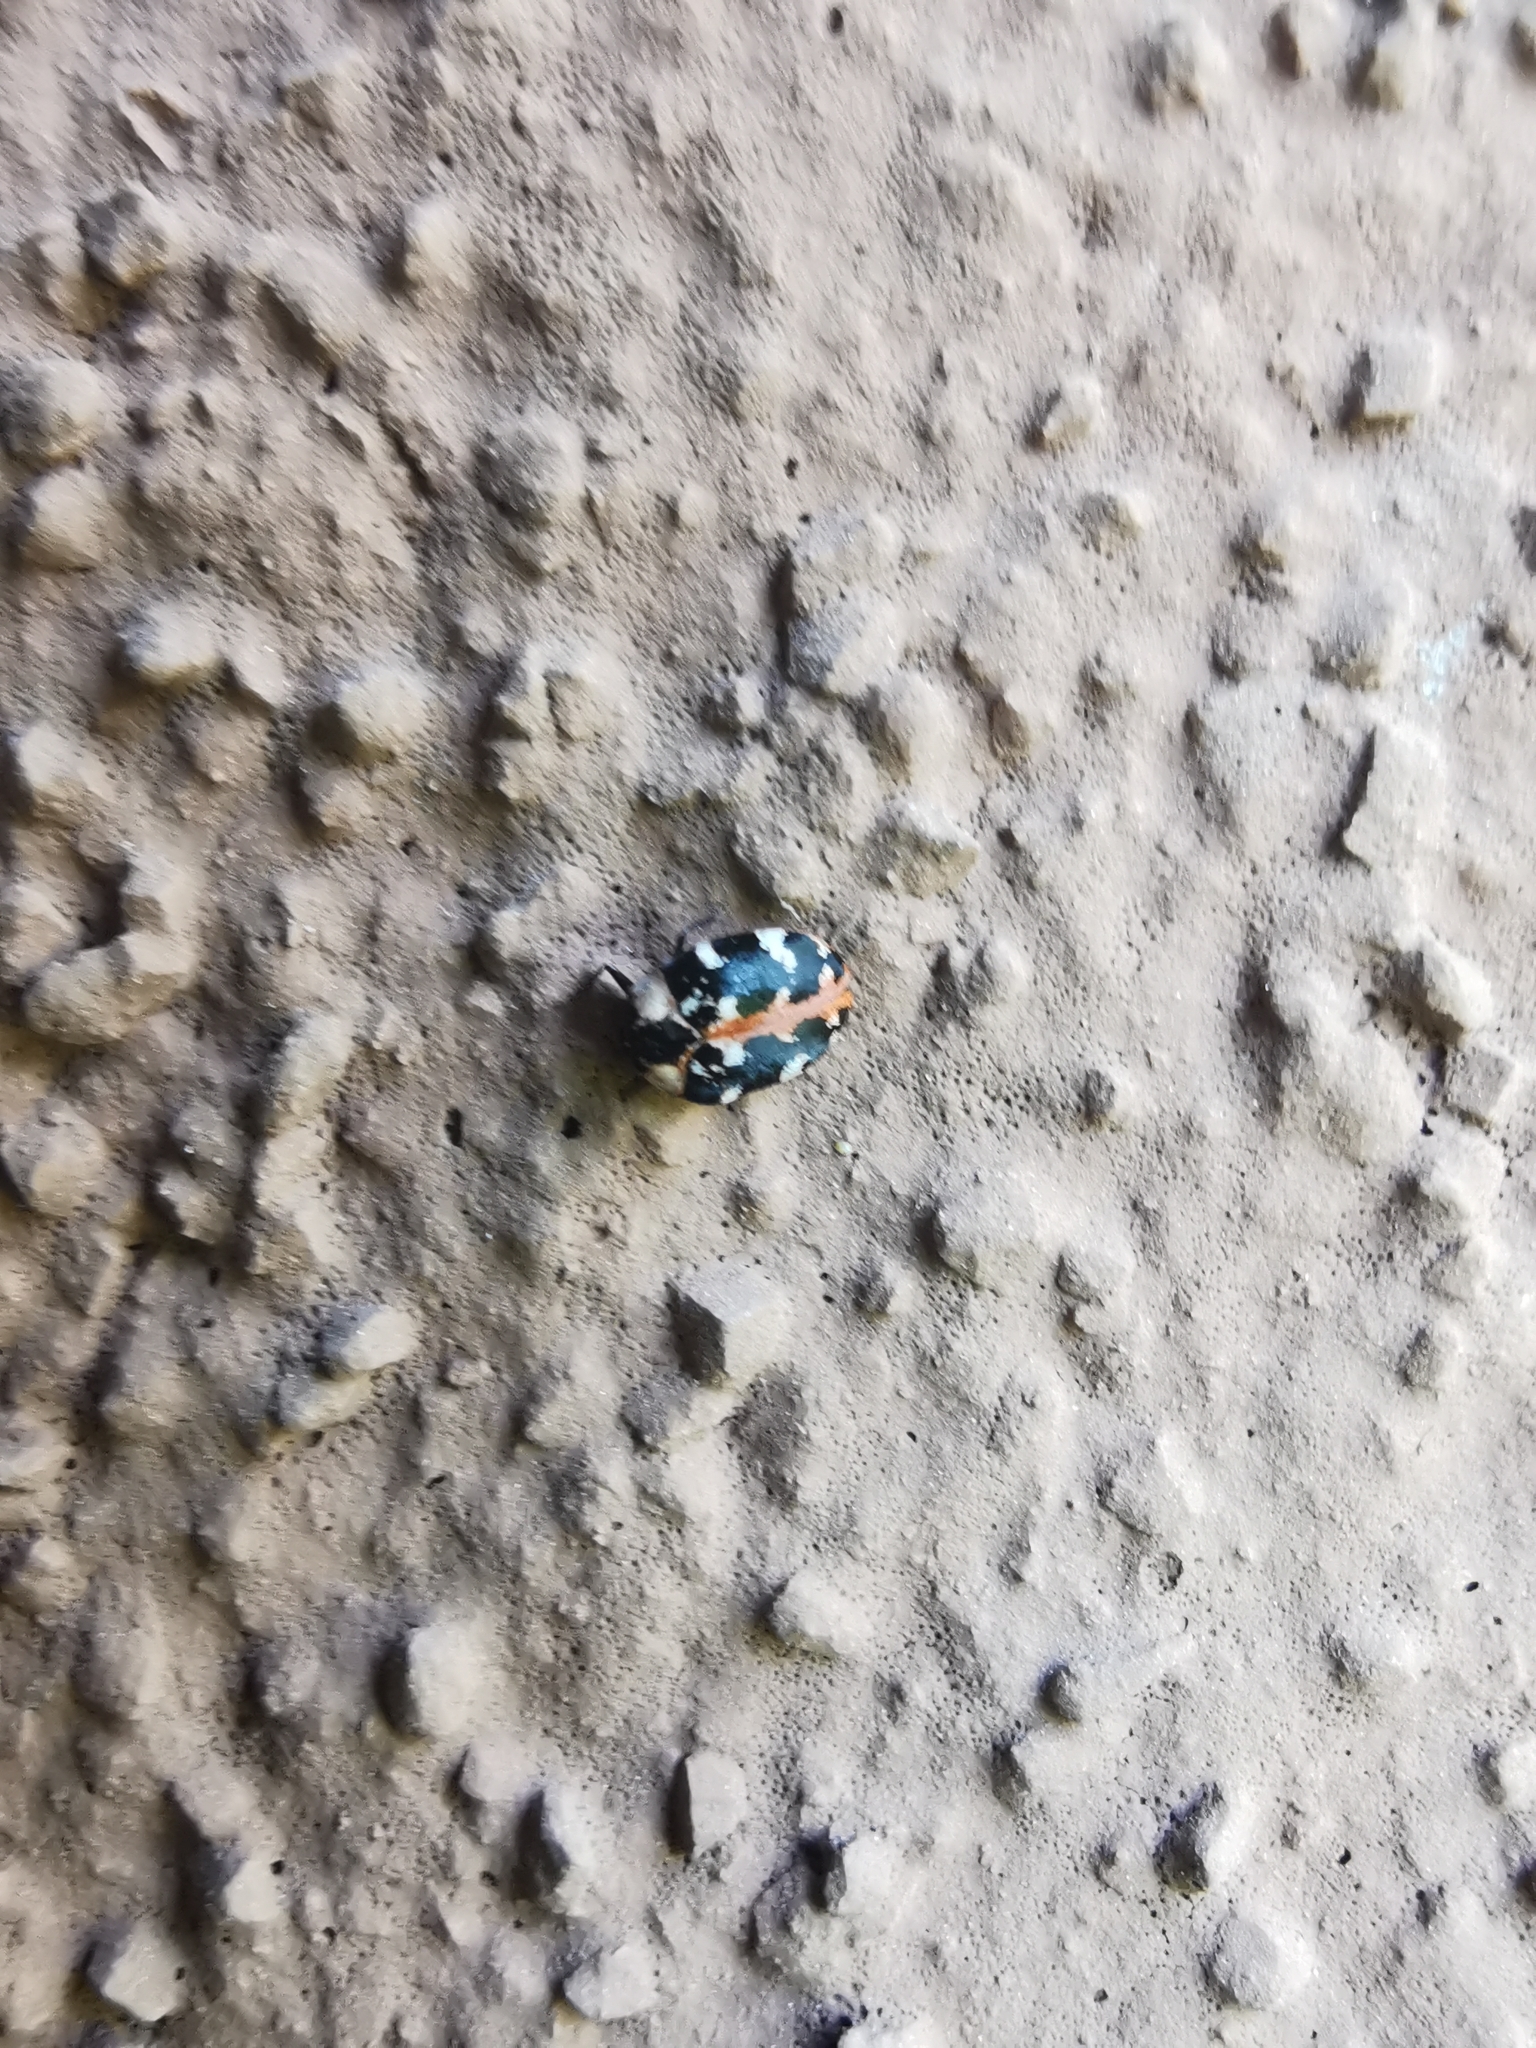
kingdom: Animalia
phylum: Arthropoda
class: Insecta
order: Coleoptera
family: Dermestidae
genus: Anthrenus
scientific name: Anthrenus scrophulariae
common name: Buffalo carpet beetle
